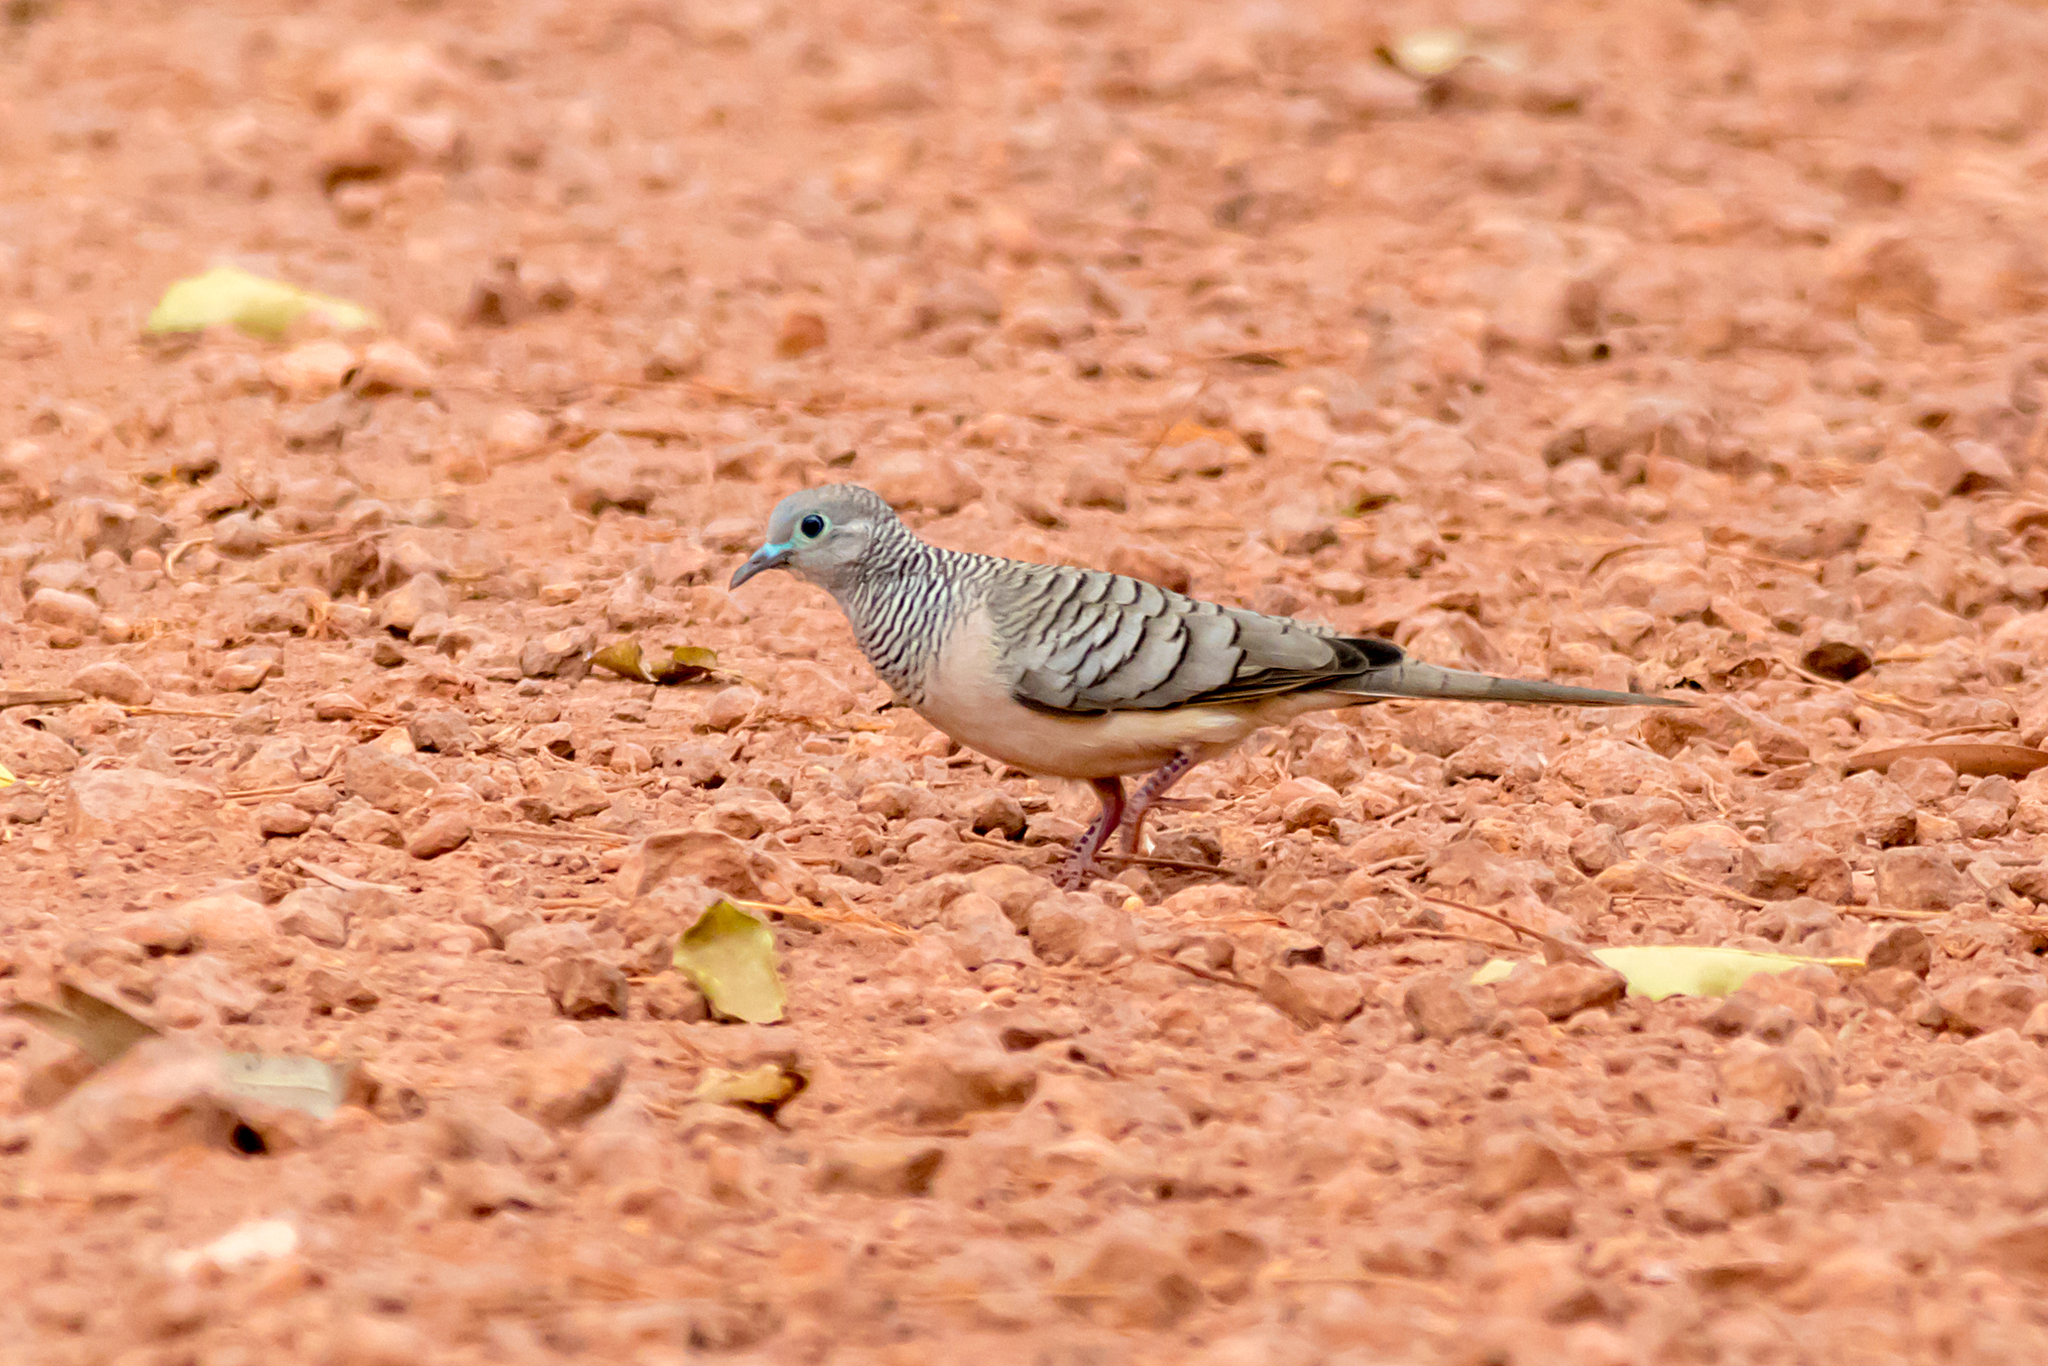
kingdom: Animalia
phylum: Chordata
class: Aves
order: Columbiformes
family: Columbidae
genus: Geopelia
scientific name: Geopelia placida
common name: Peaceful dove
